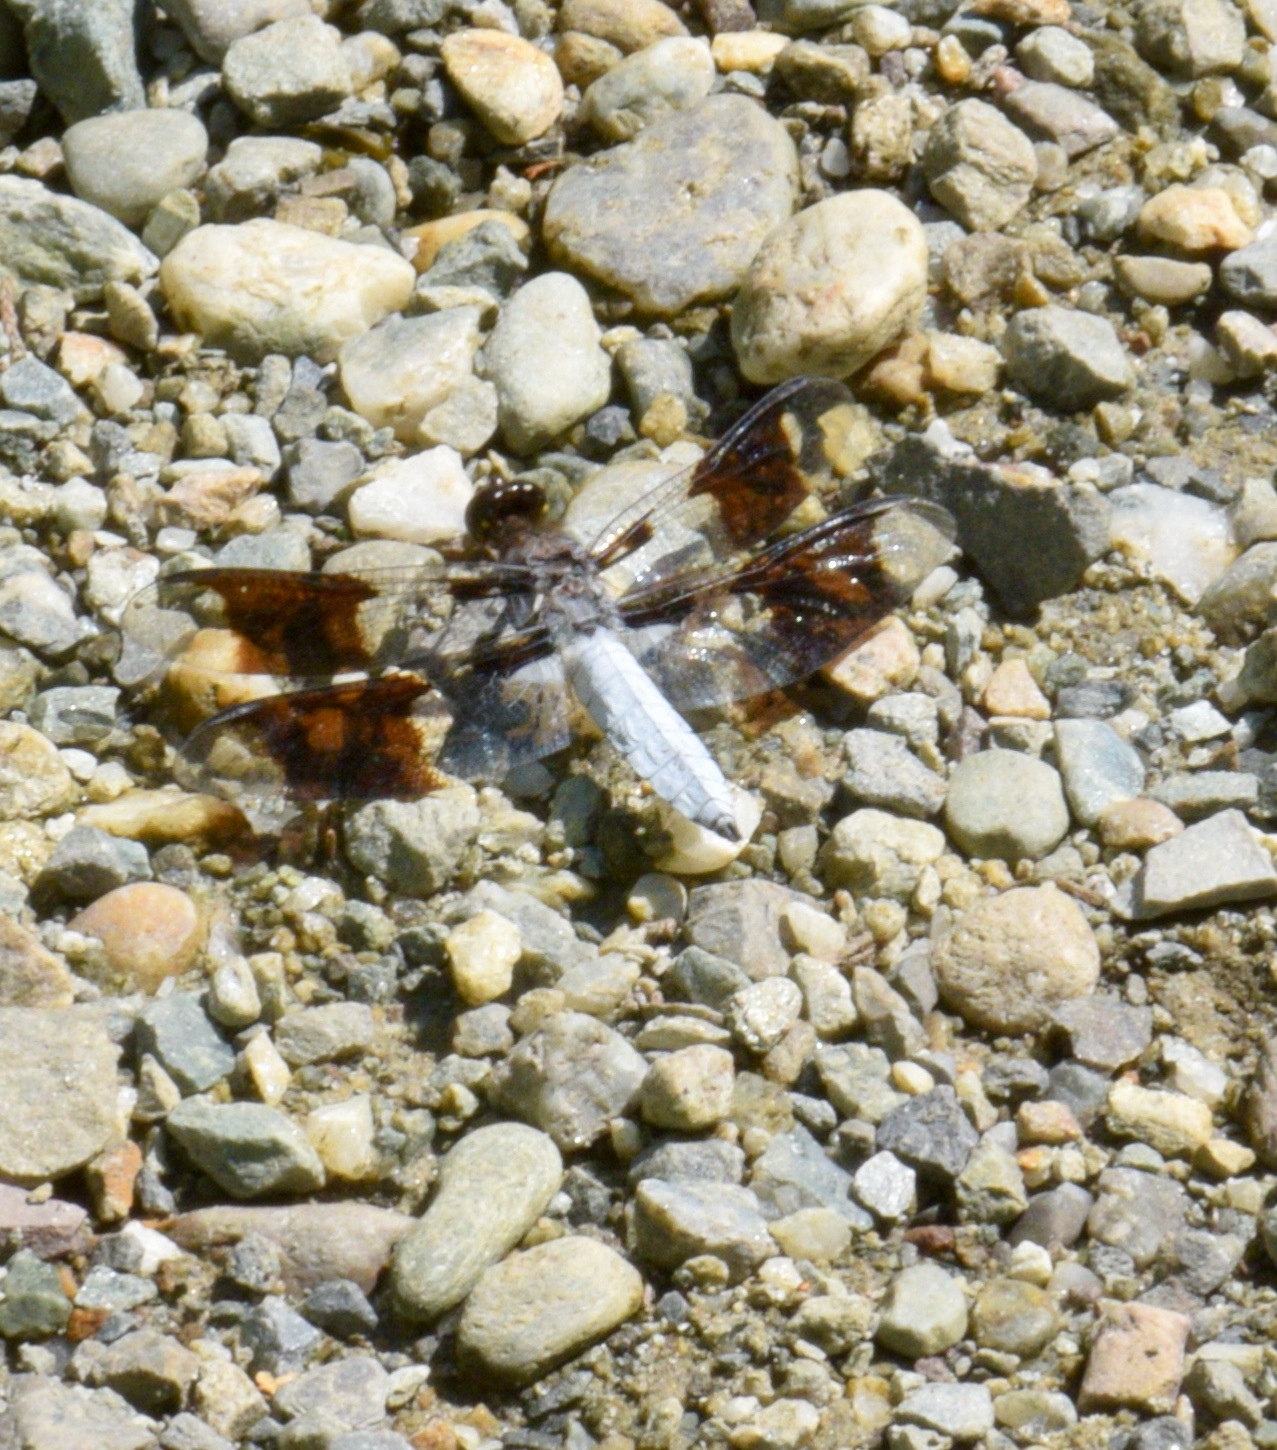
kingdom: Animalia
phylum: Arthropoda
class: Insecta
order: Odonata
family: Libellulidae
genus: Plathemis
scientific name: Plathemis lydia
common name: Common whitetail
